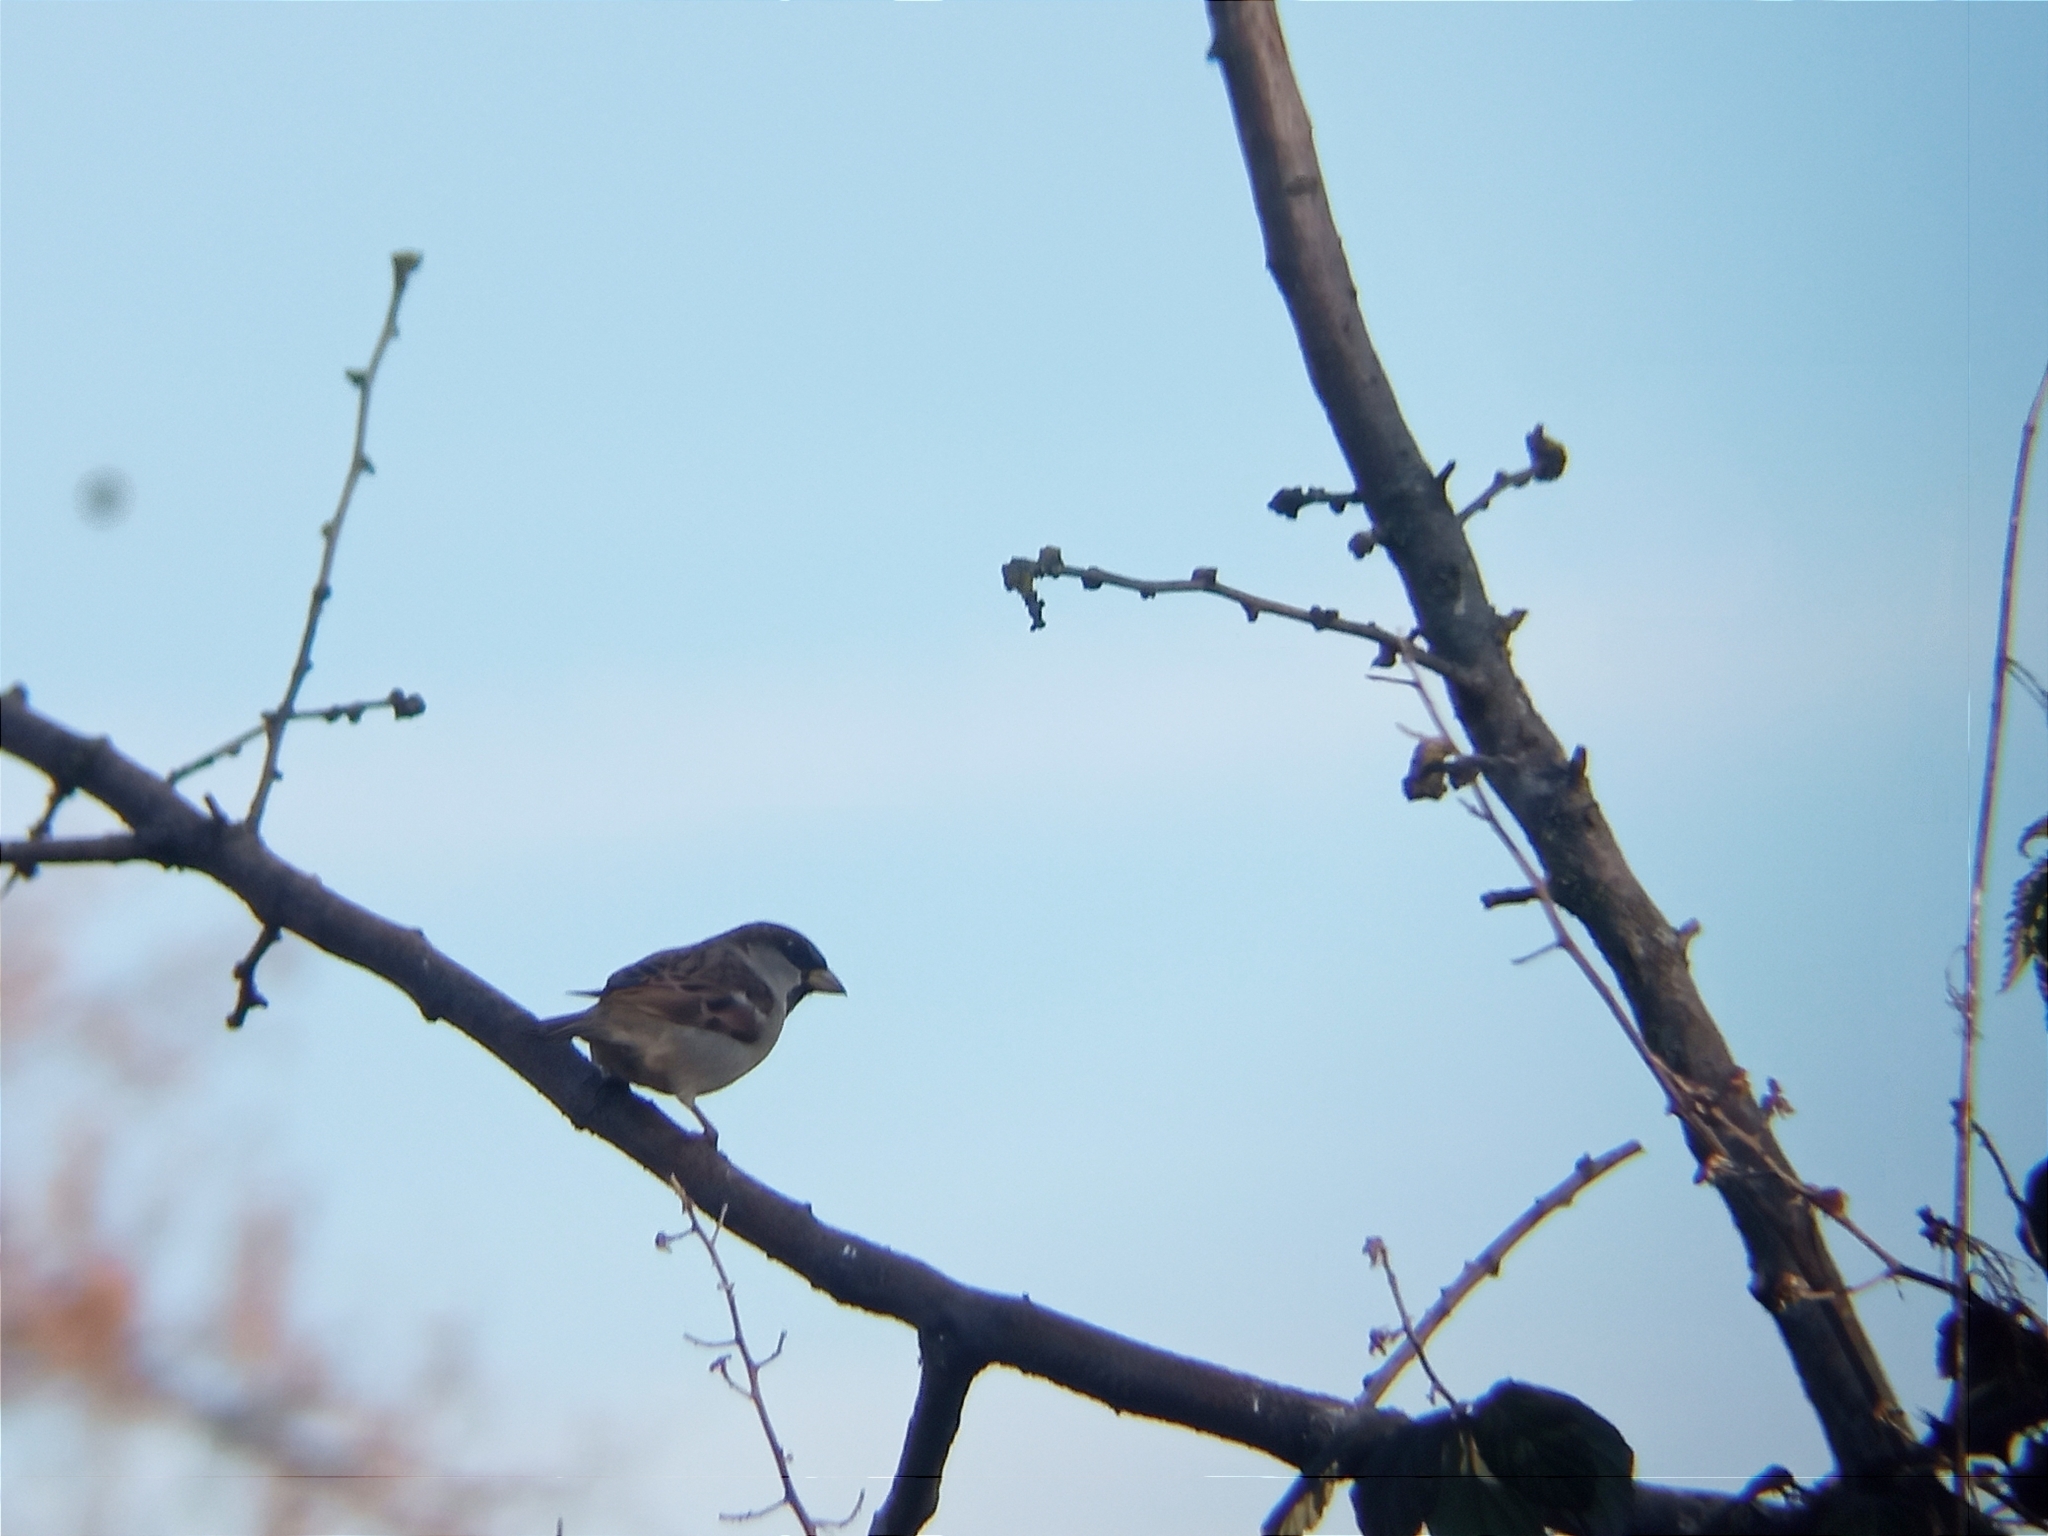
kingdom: Animalia
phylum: Chordata
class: Aves
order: Passeriformes
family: Passeridae
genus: Passer
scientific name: Passer domesticus
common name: House sparrow
